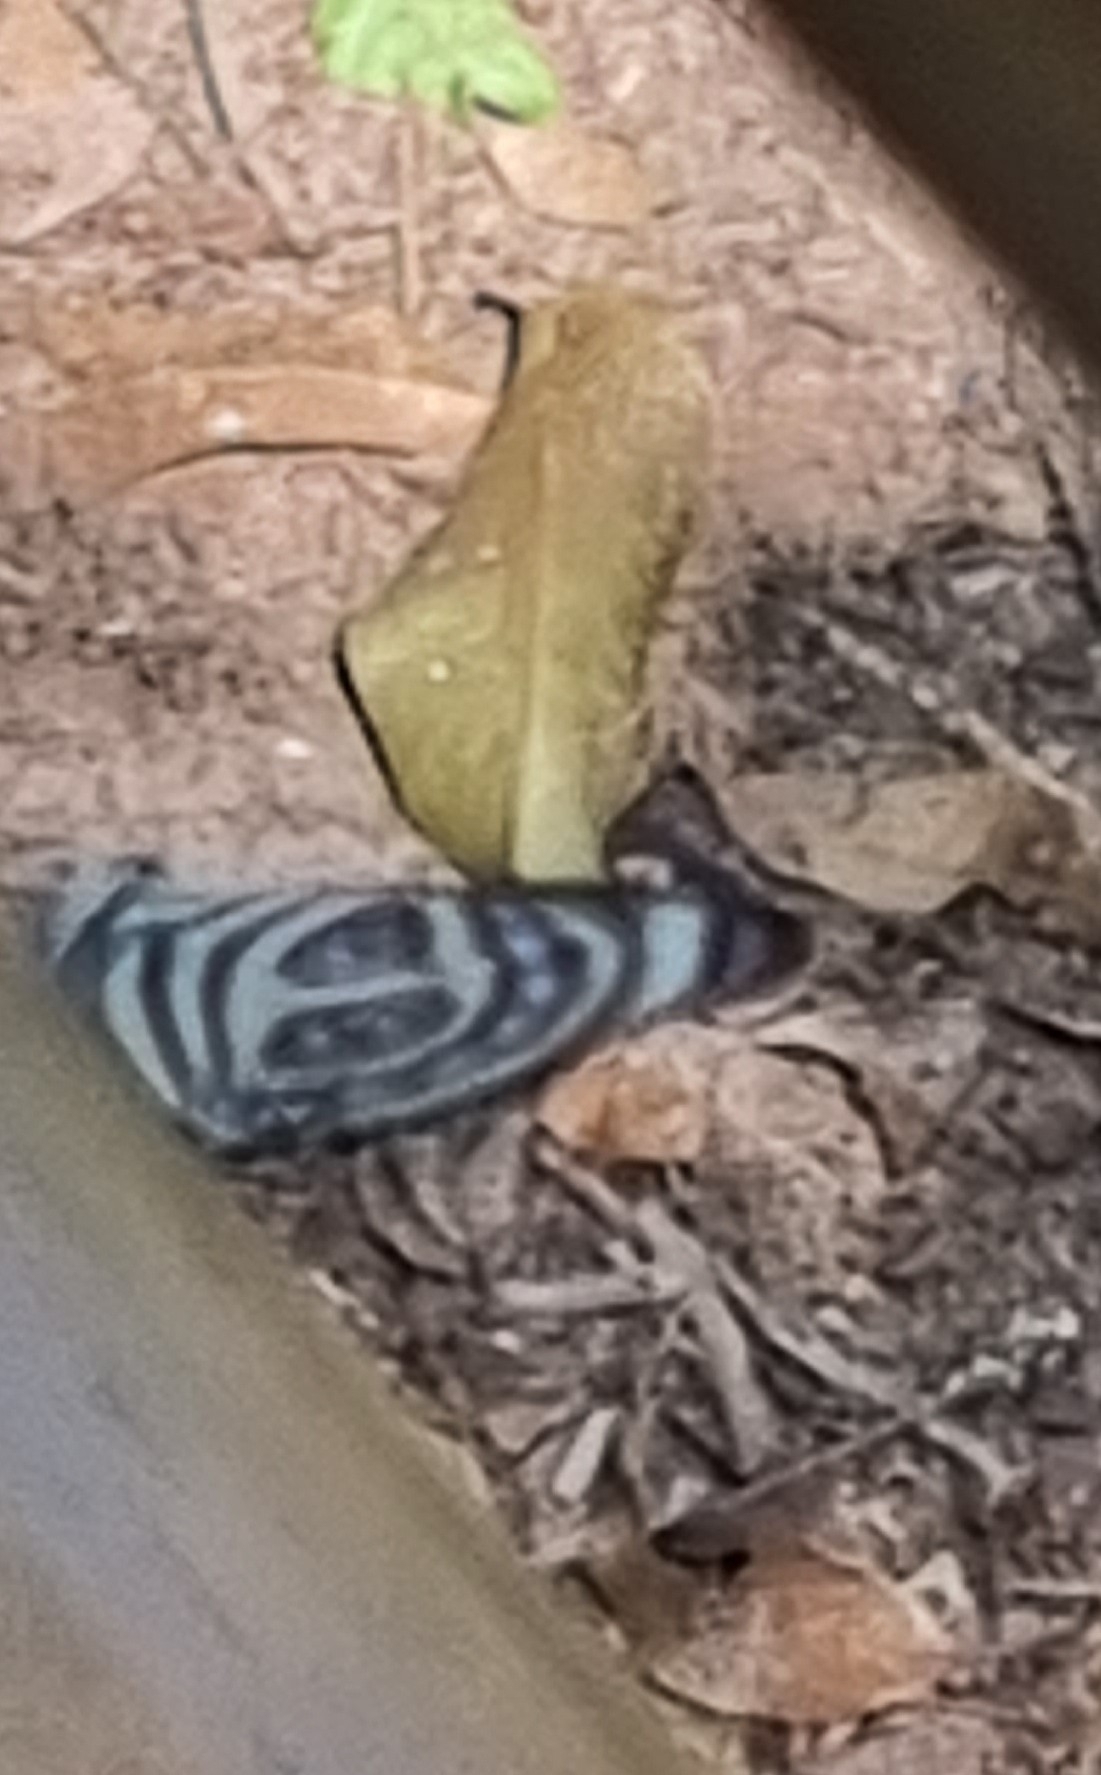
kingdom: Animalia
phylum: Arthropoda
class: Insecta
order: Lepidoptera
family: Nymphalidae
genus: Catagramma
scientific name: Catagramma pygas
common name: Godart's numberwing
